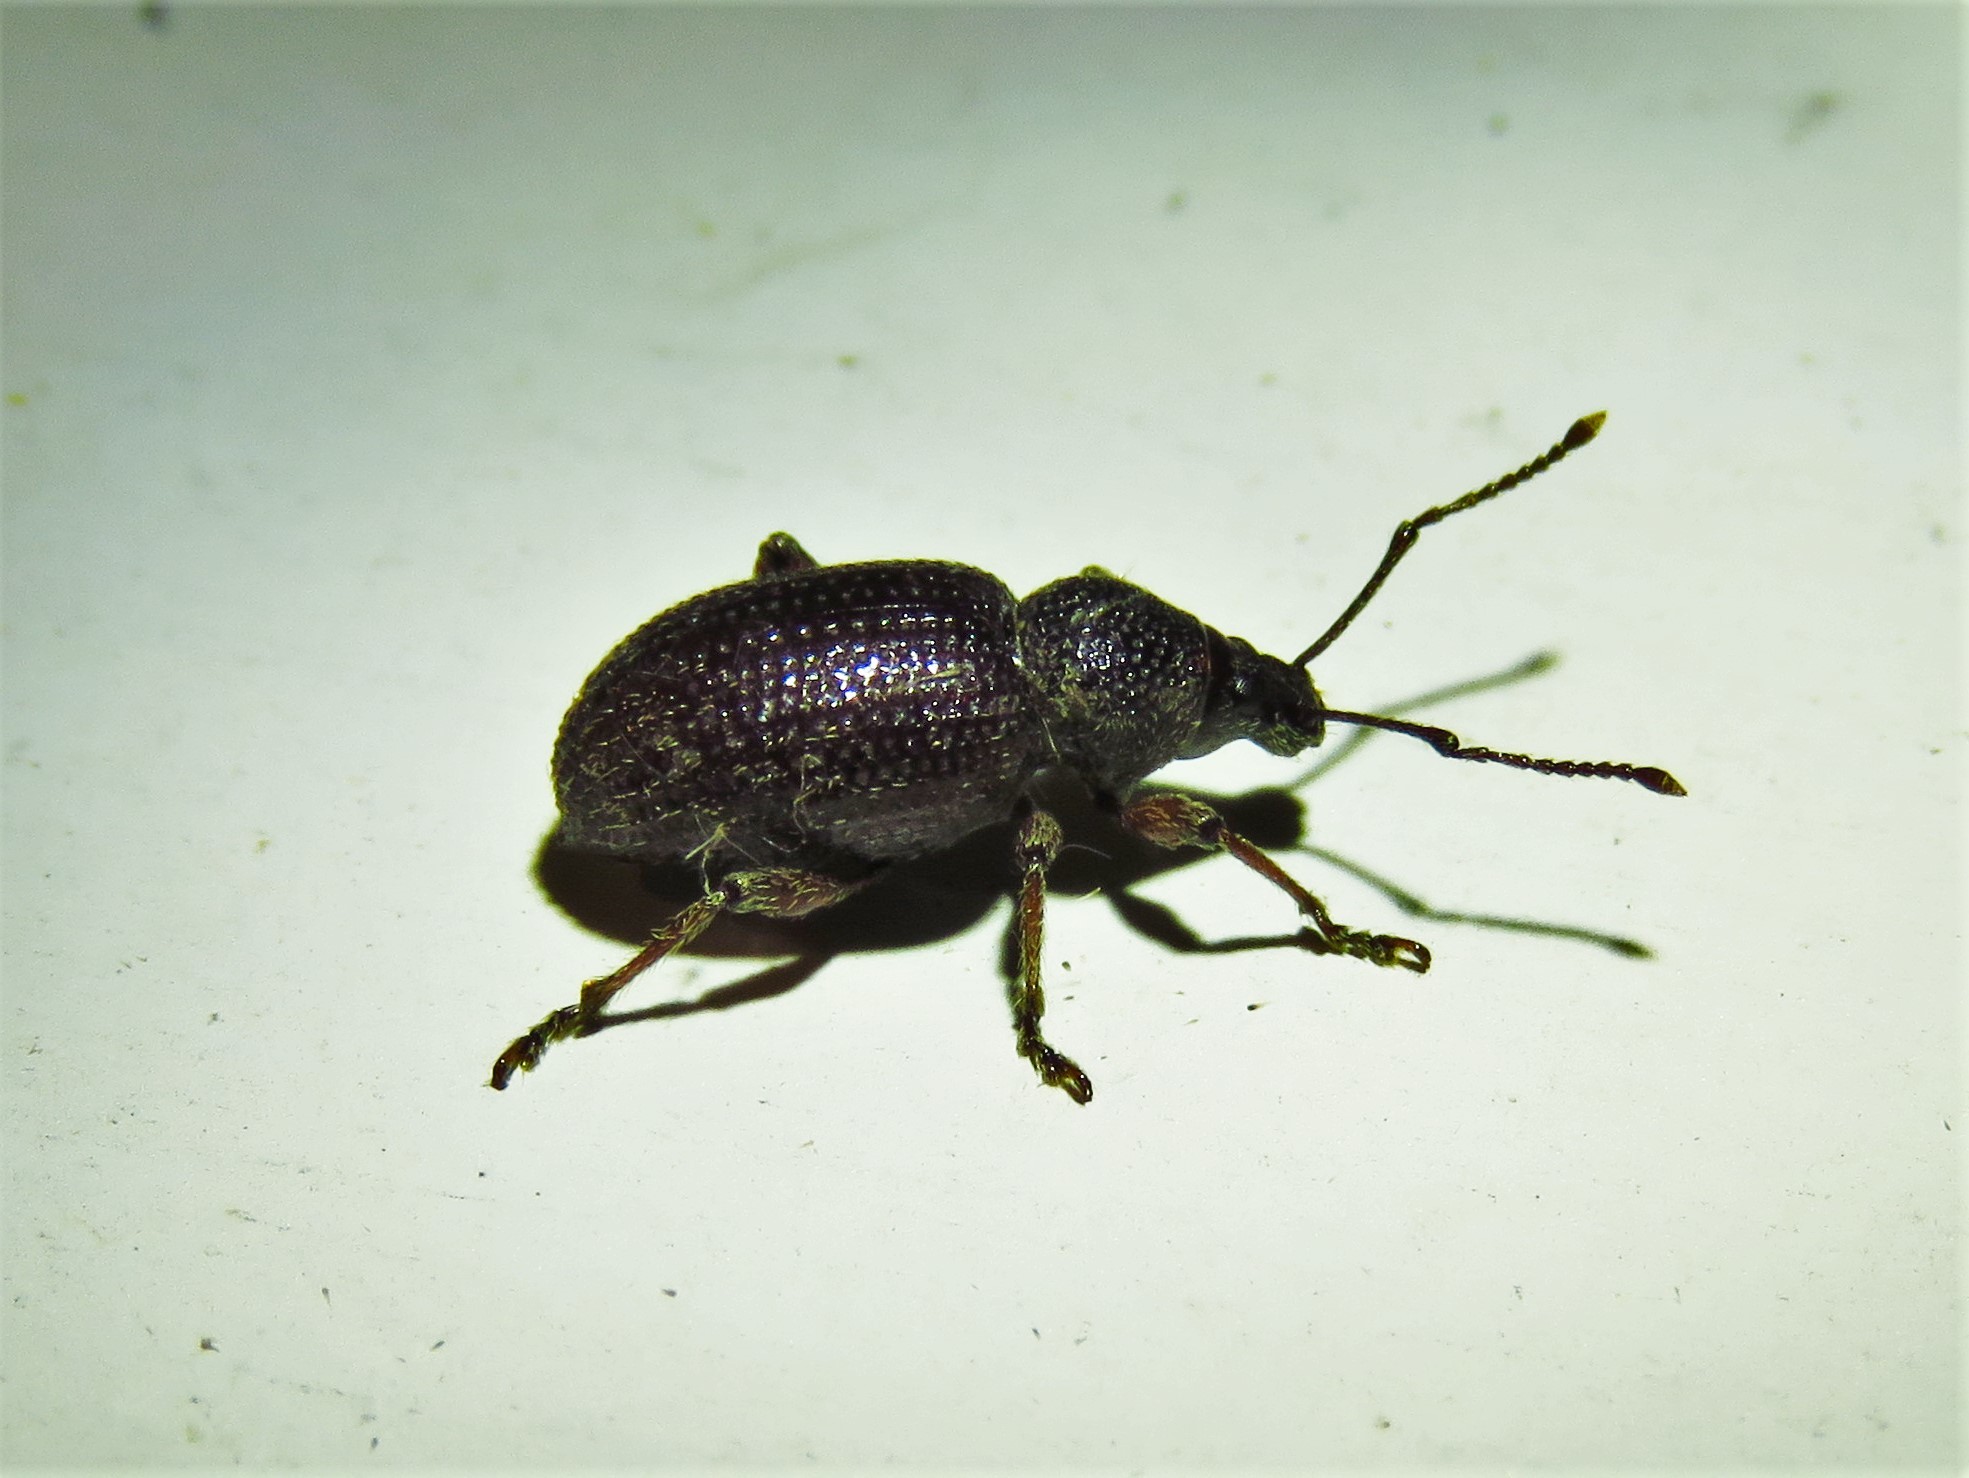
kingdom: Animalia
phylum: Arthropoda
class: Insecta
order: Coleoptera
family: Curculionidae
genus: Otiorhynchus
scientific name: Otiorhynchus cribricollis
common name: Weevil
